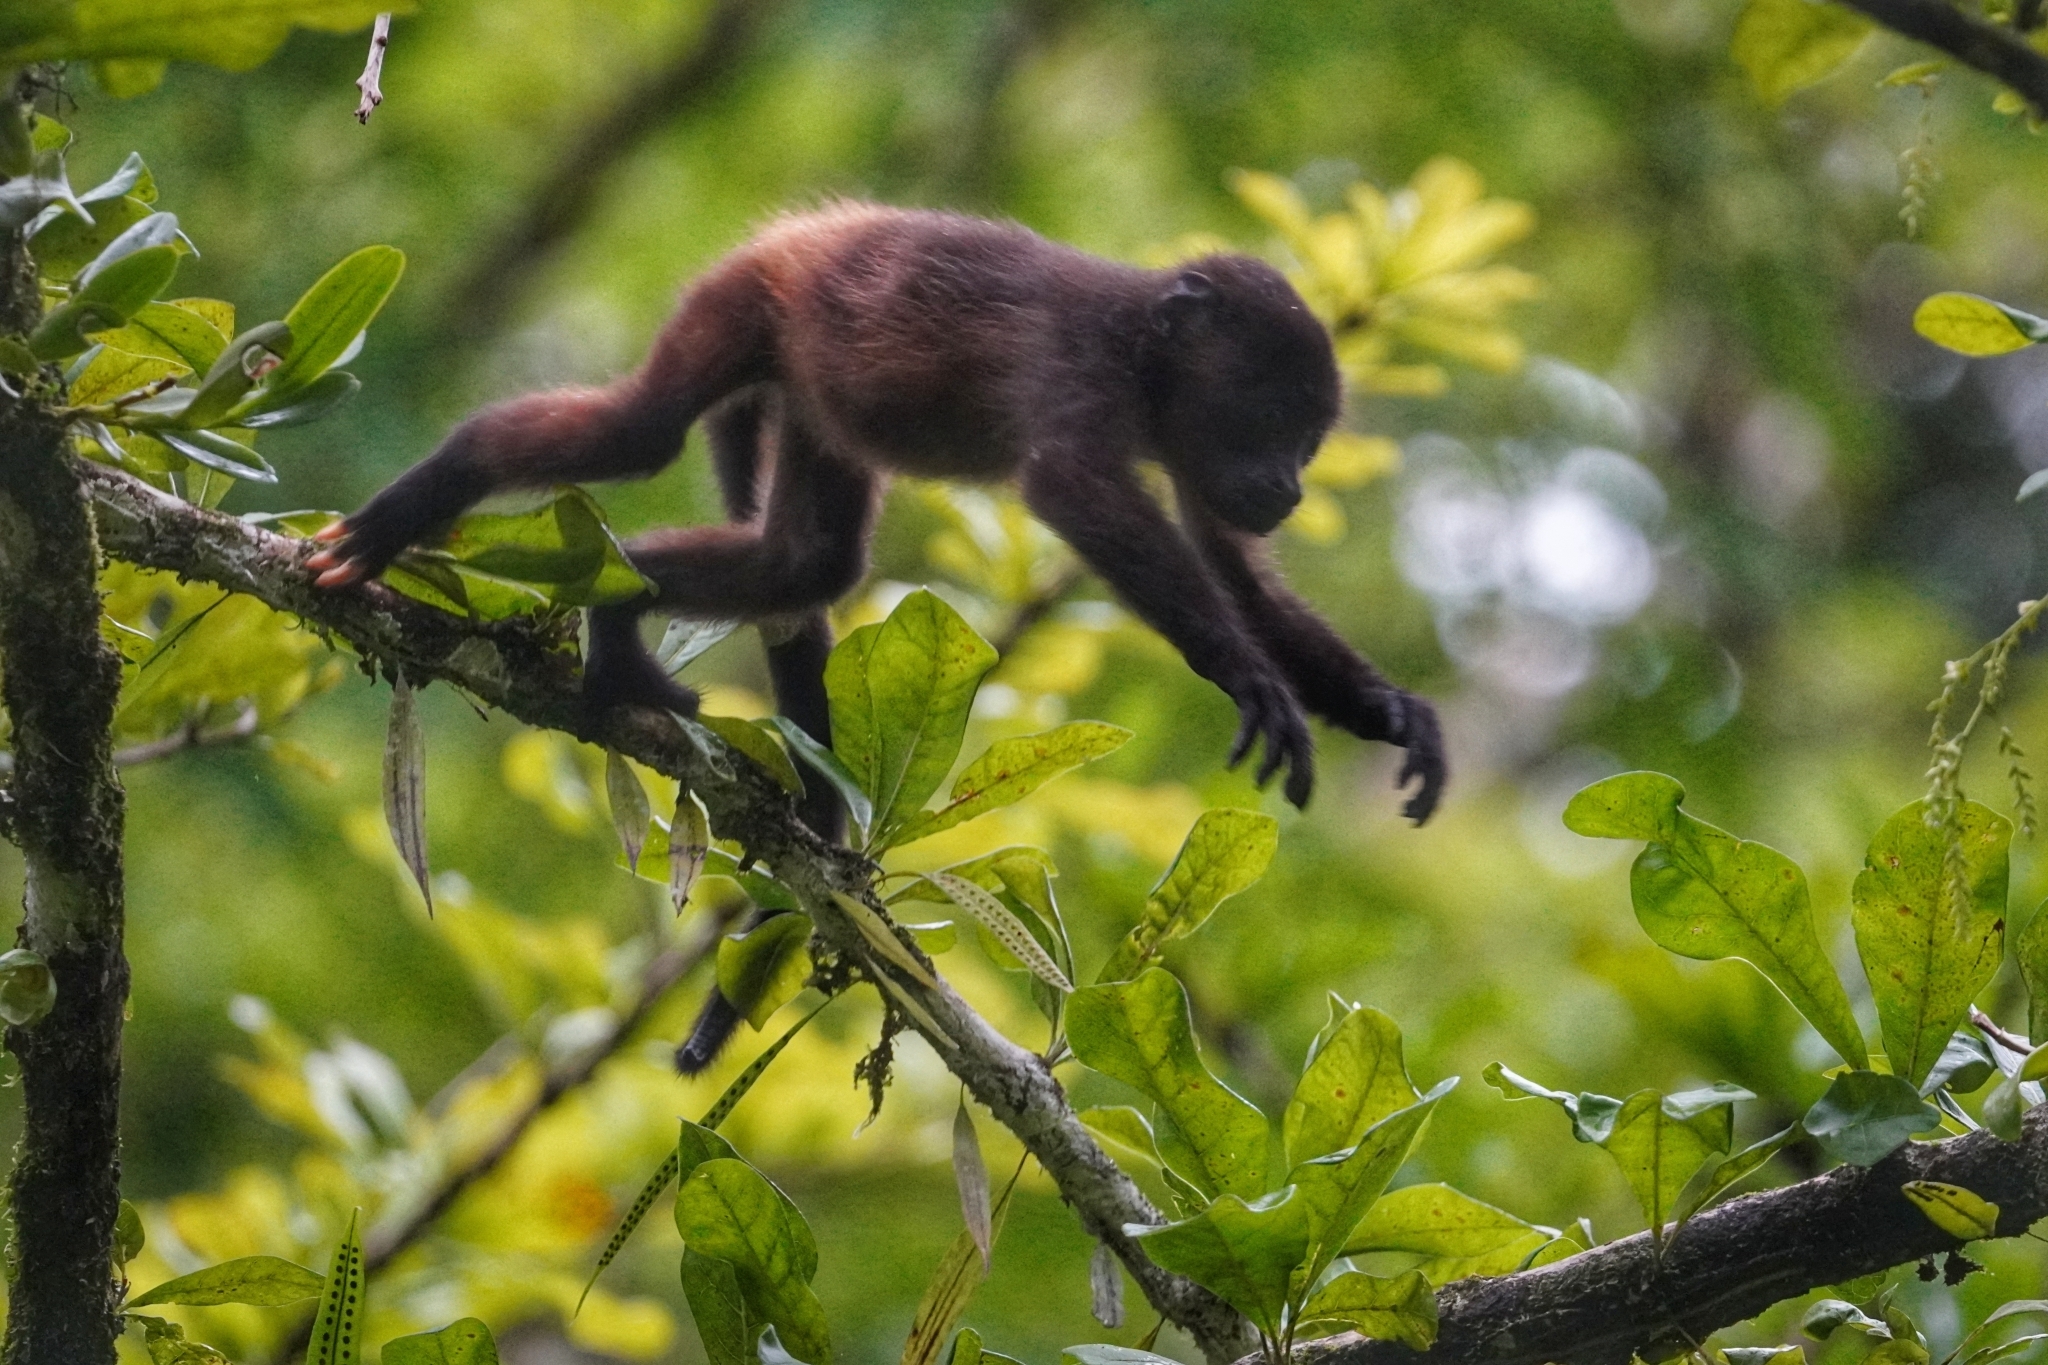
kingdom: Animalia
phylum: Chordata
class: Mammalia
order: Primates
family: Atelidae
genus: Alouatta
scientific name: Alouatta palliata
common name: Mantled howler
